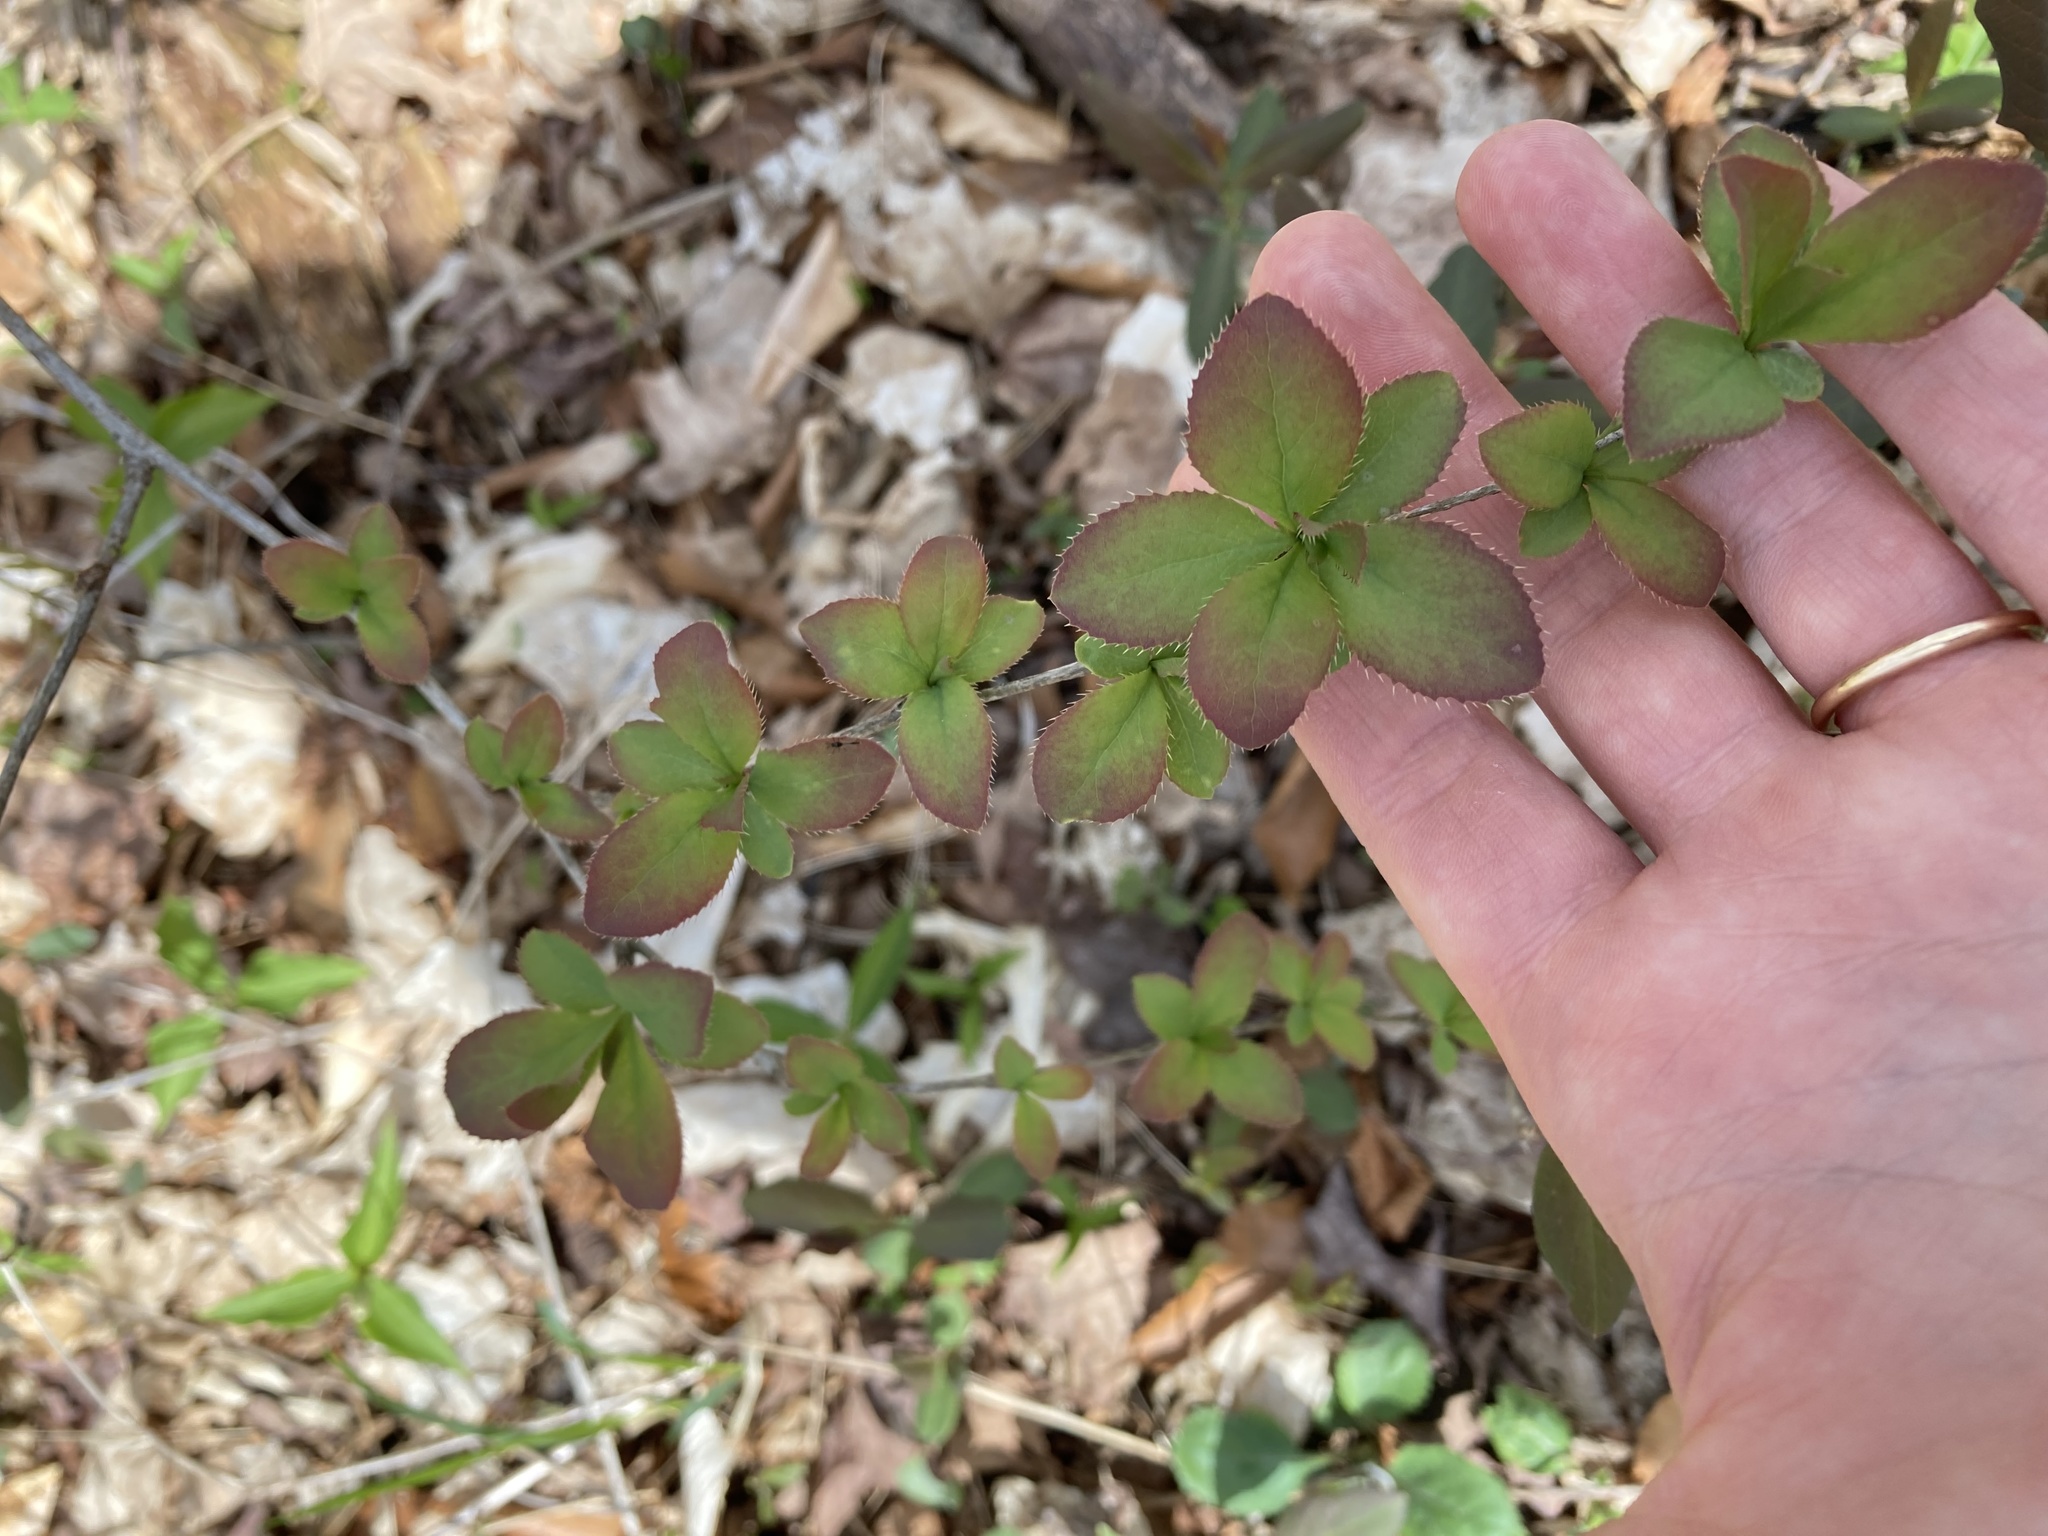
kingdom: Plantae
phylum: Tracheophyta
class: Magnoliopsida
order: Ranunculales
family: Berberidaceae
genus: Berberis
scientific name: Berberis vulgaris
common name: Barberry
